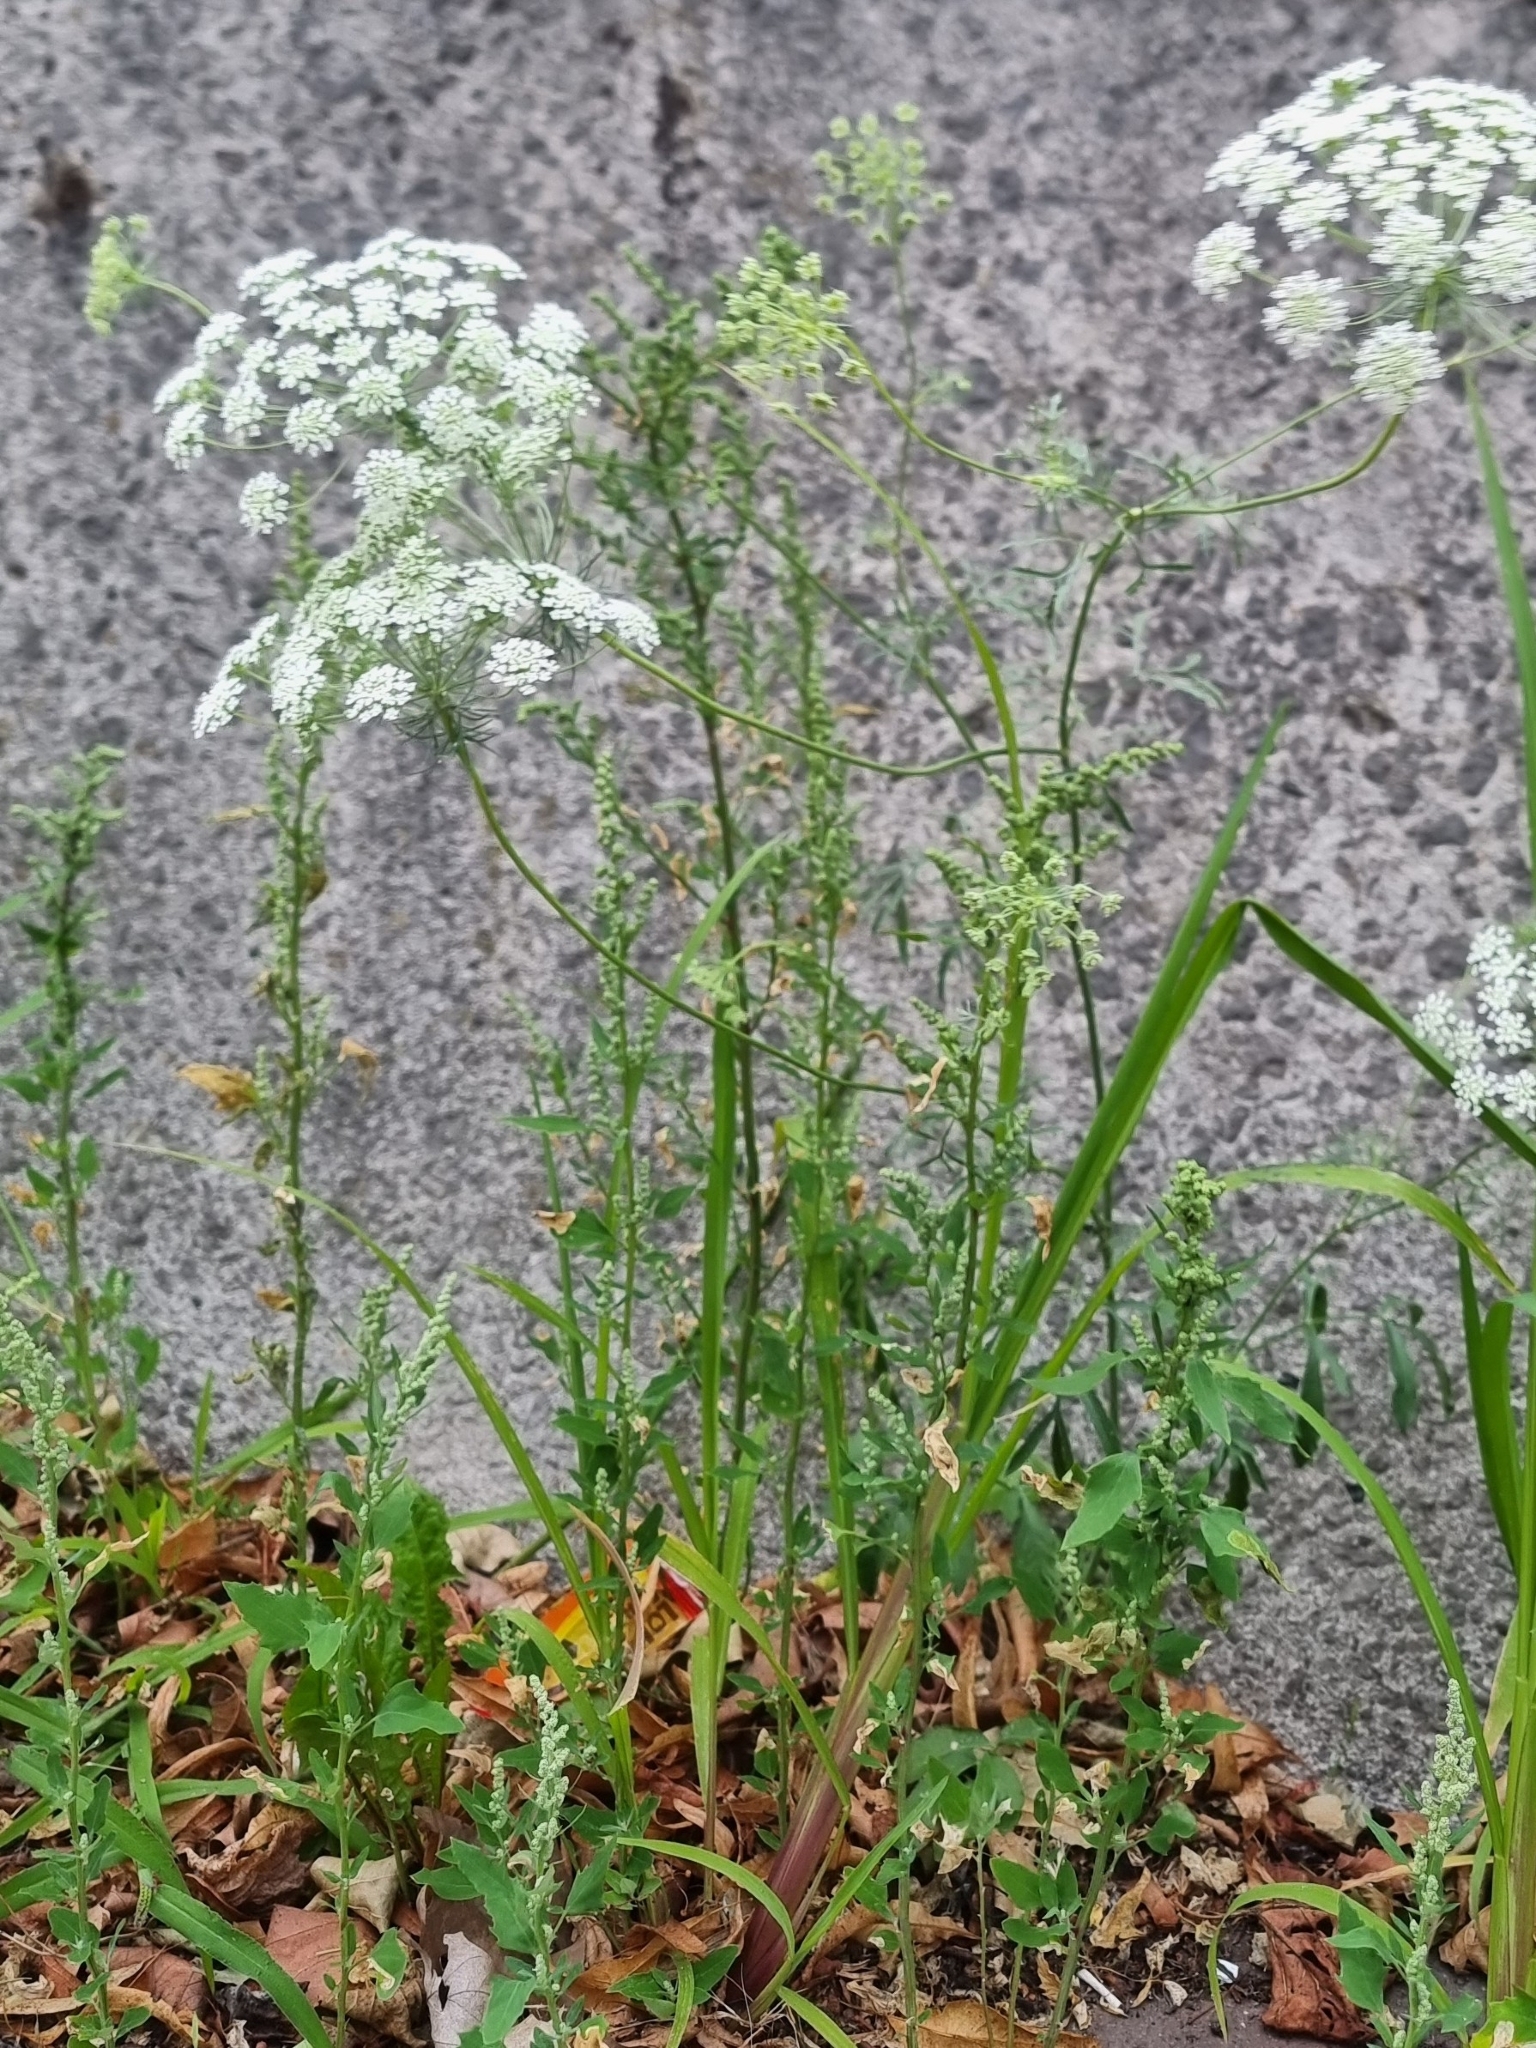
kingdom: Plantae
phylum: Tracheophyta
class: Magnoliopsida
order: Apiales
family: Apiaceae
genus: Ammi
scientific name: Ammi majus
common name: Bullwort
